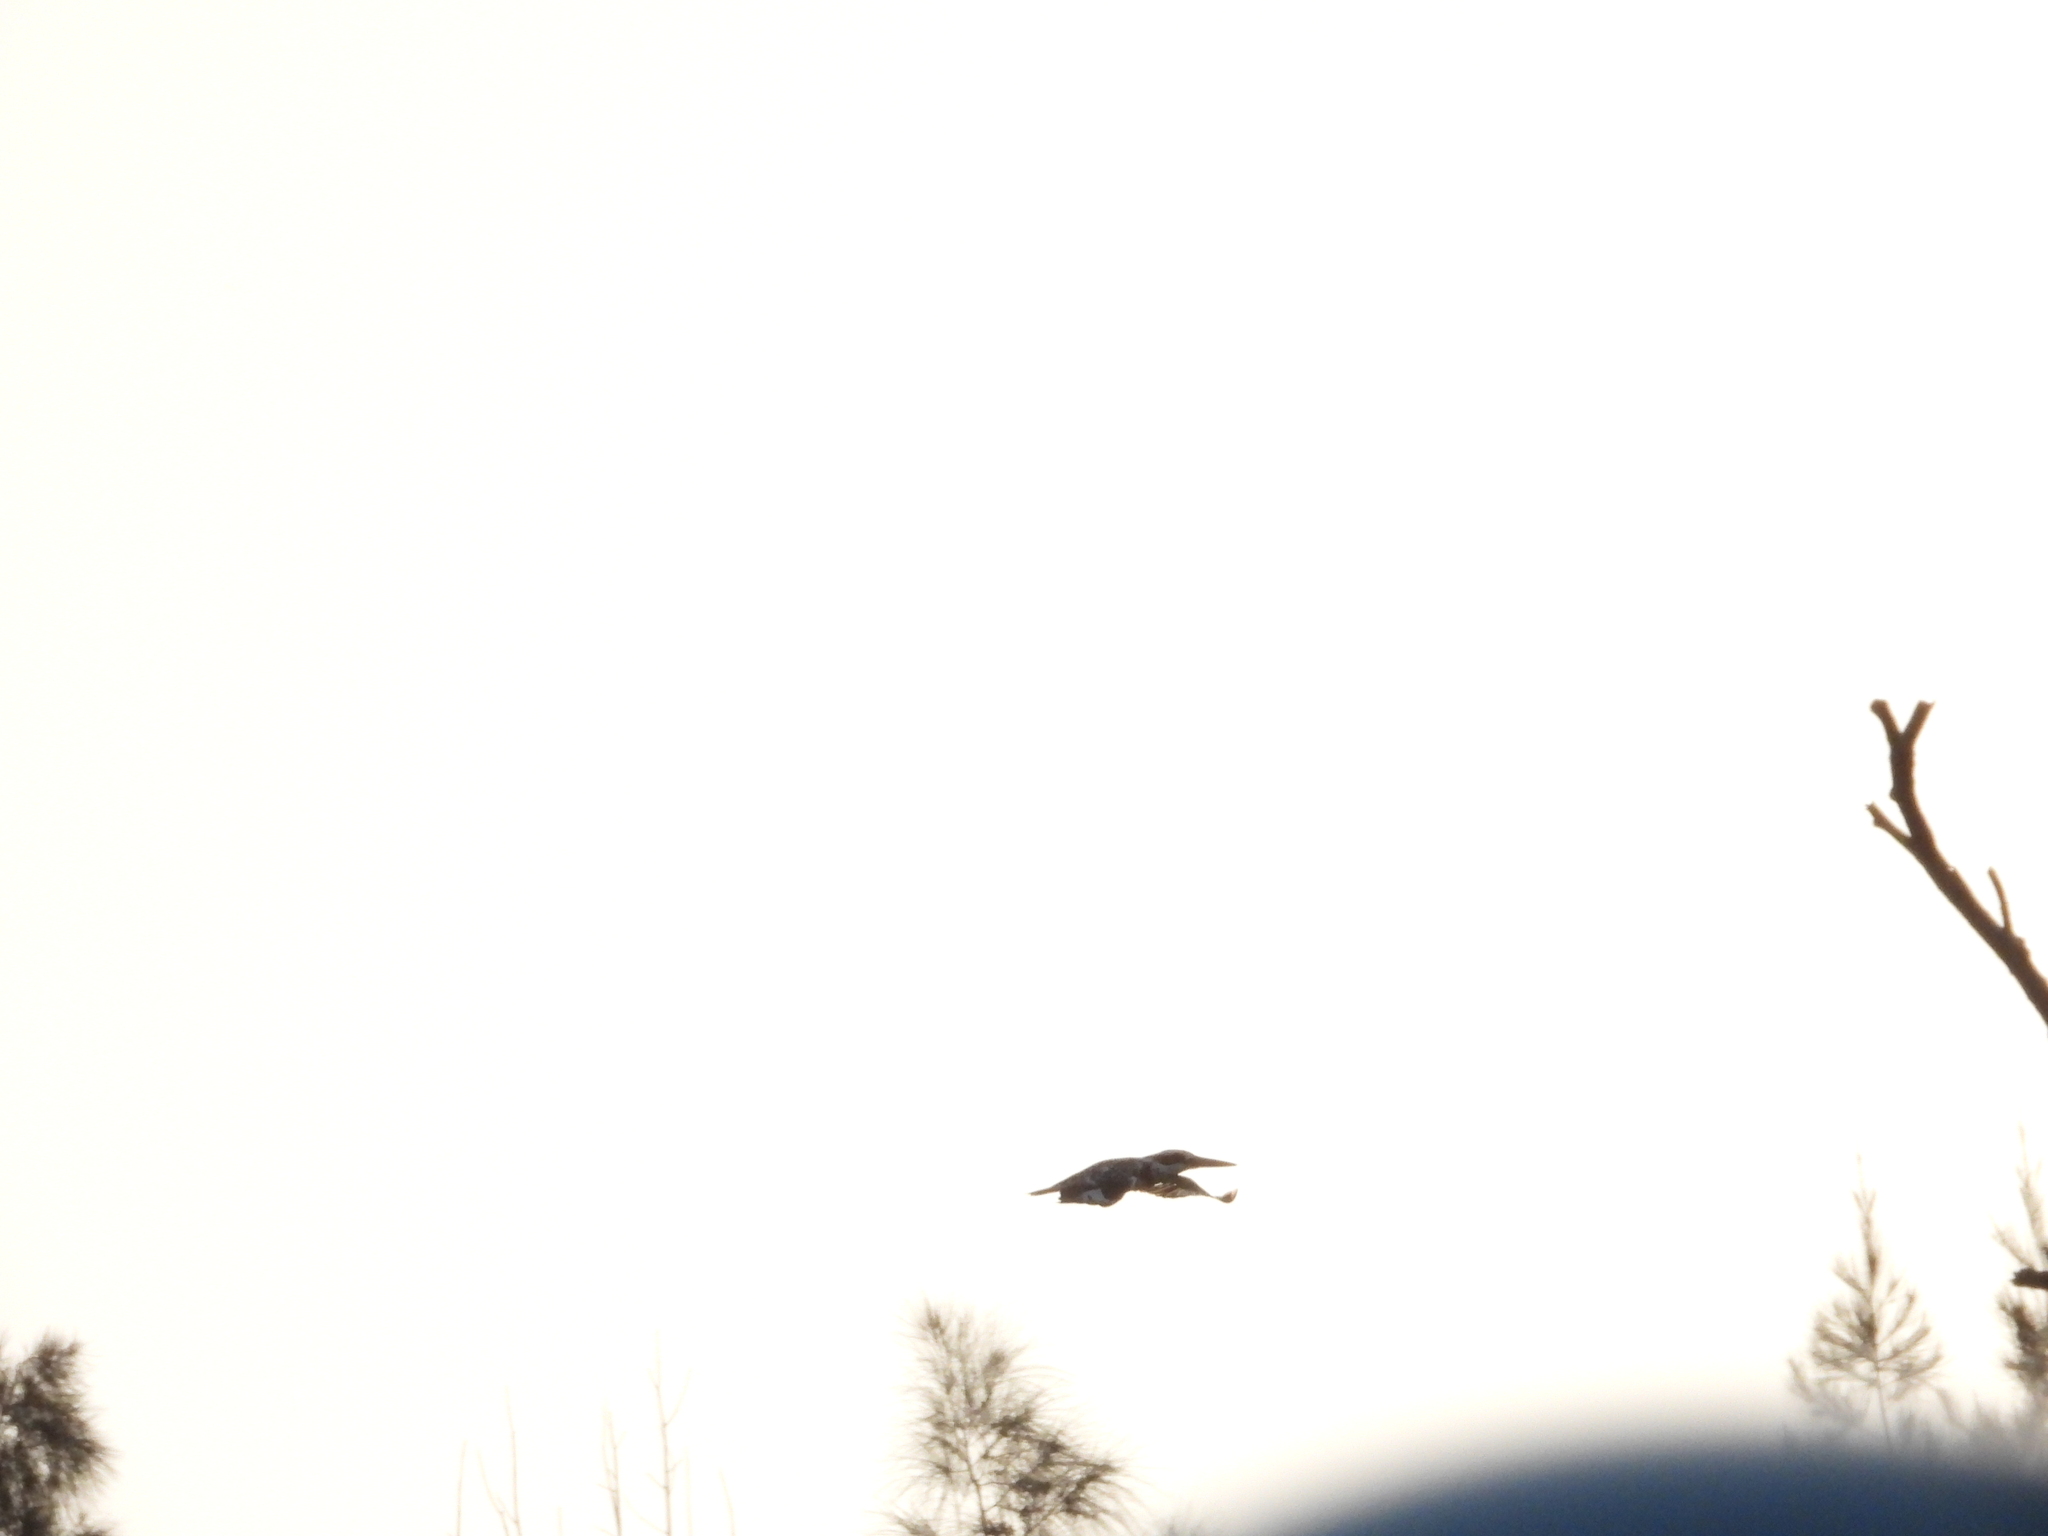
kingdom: Animalia
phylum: Chordata
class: Aves
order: Coraciiformes
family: Alcedinidae
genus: Ceryle
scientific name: Ceryle rudis
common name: Pied kingfisher
